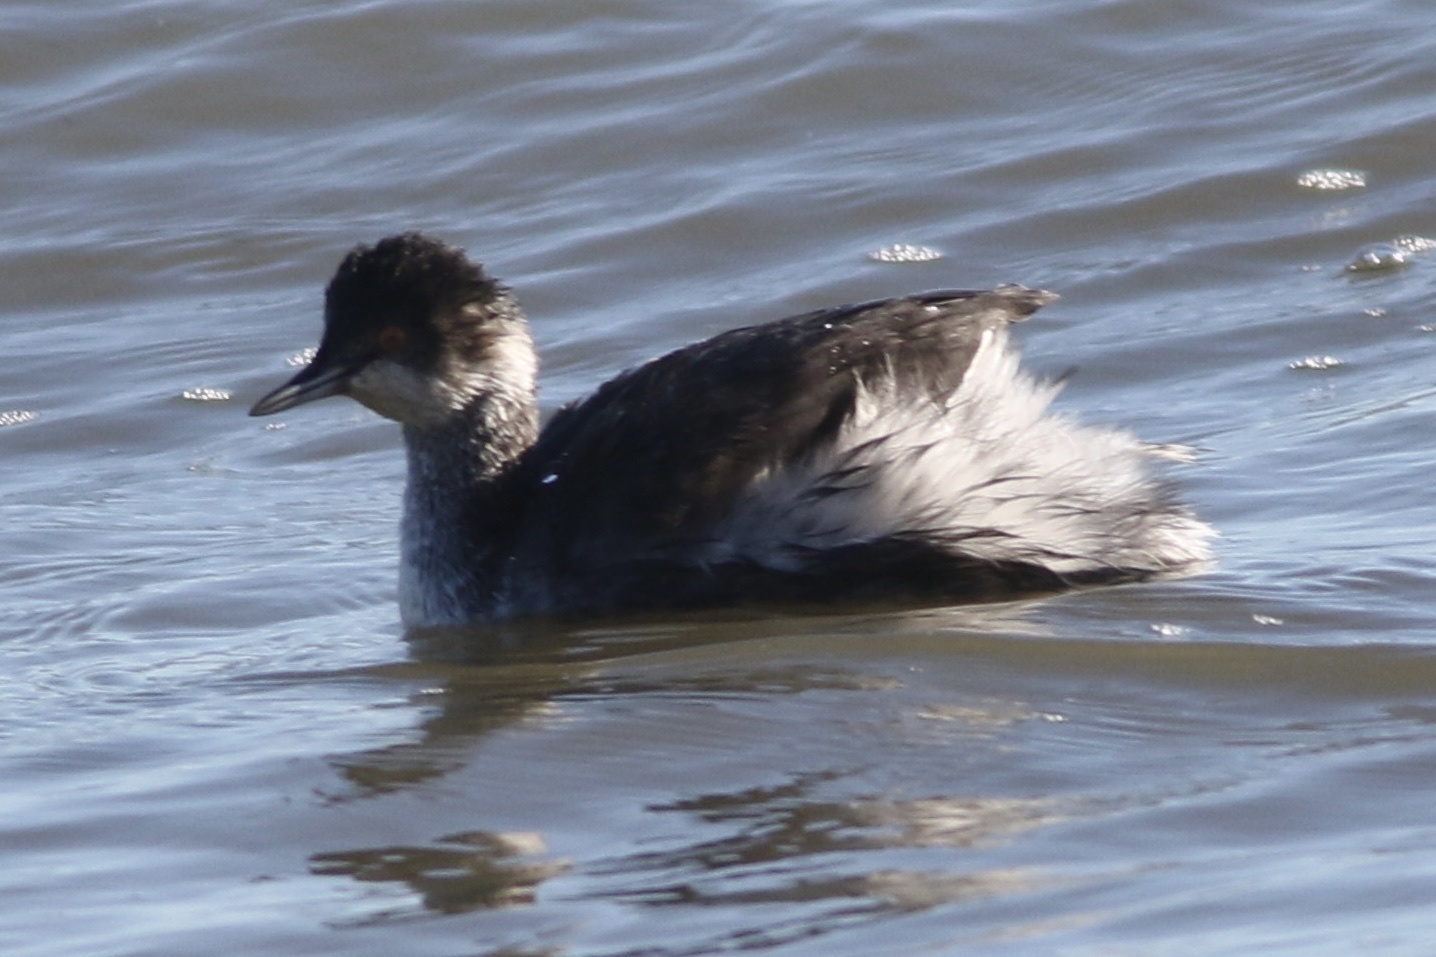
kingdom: Animalia
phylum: Chordata
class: Aves
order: Podicipediformes
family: Podicipedidae
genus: Podiceps
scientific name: Podiceps nigricollis
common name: Black-necked grebe
